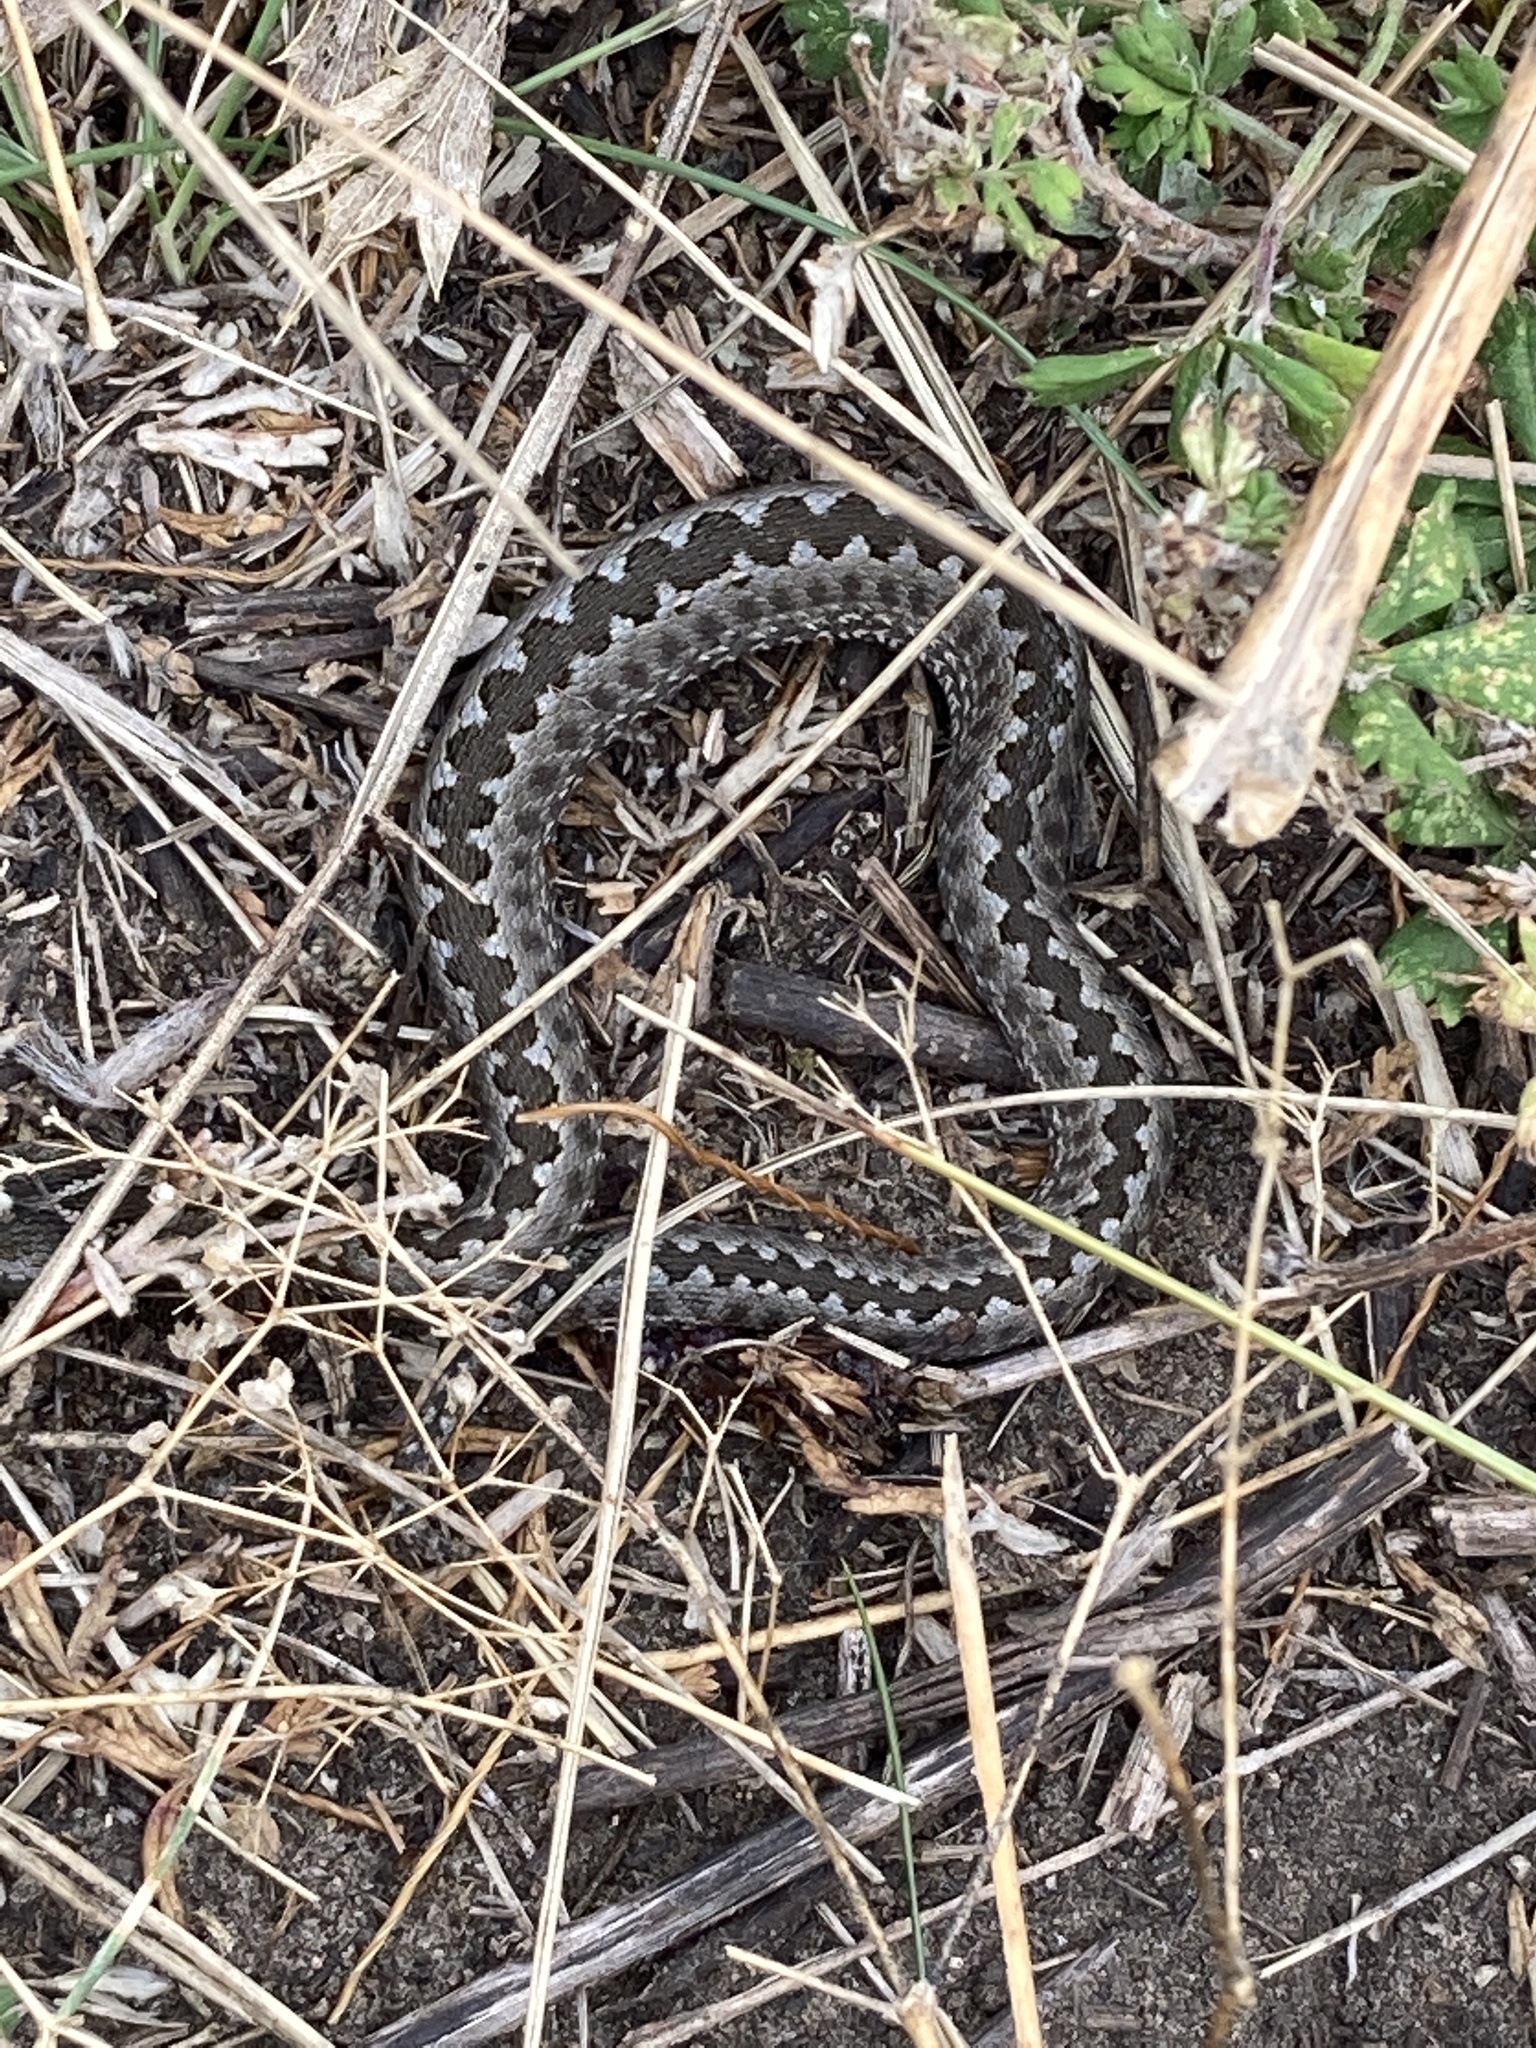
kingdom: Animalia
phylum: Chordata
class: Squamata
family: Viperidae
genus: Vipera
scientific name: Vipera renardi
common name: Eastern steppe viper
